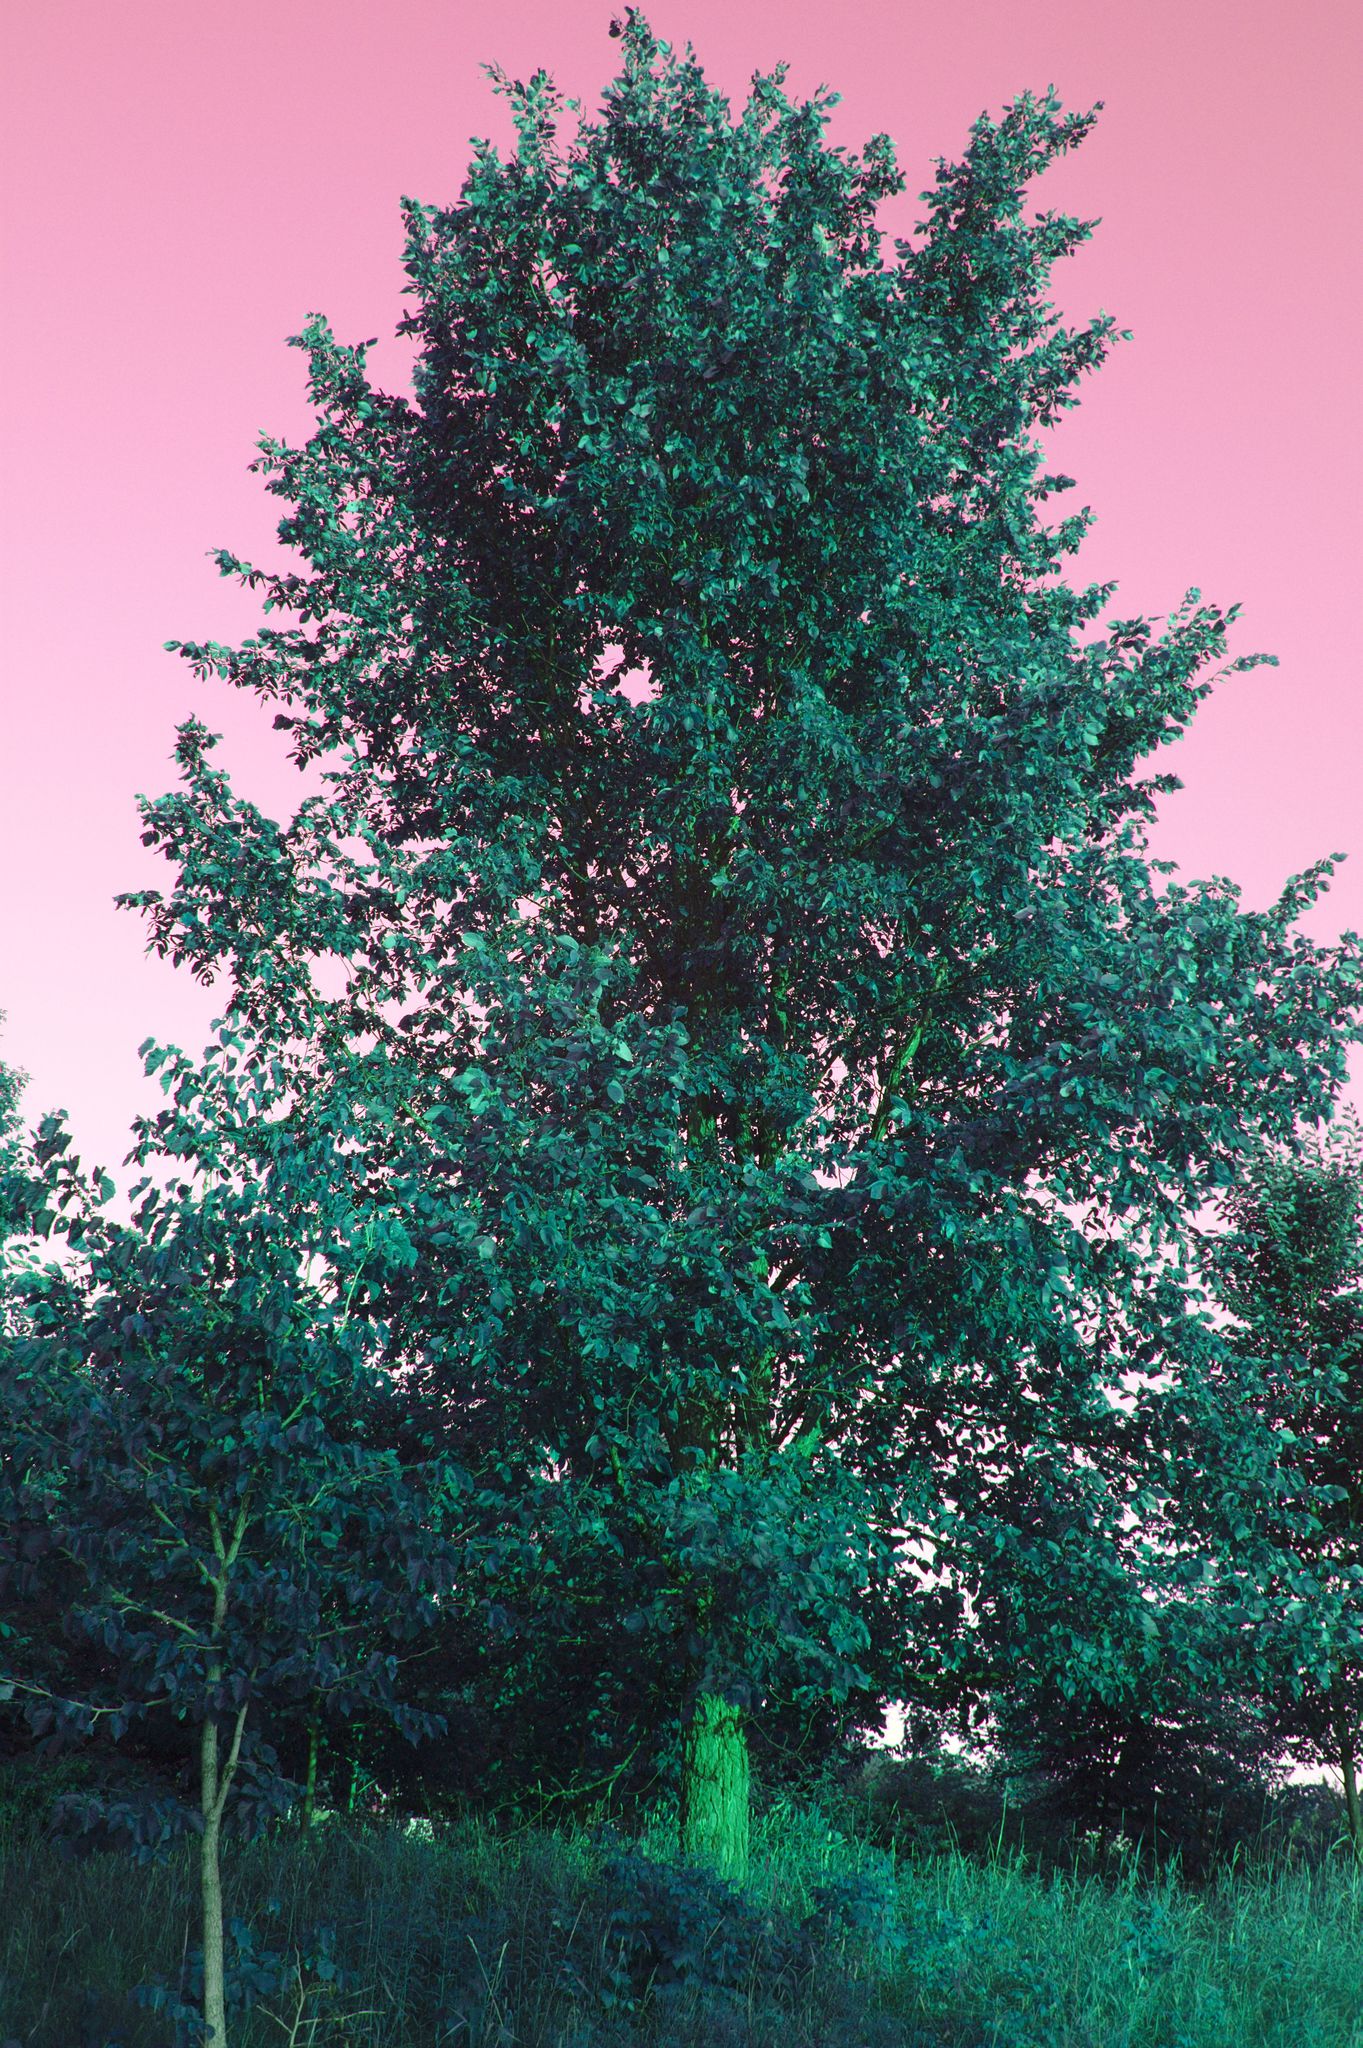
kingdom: Plantae
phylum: Tracheophyta
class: Magnoliopsida
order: Rosales
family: Ulmaceae
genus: Ulmus
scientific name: Ulmus americana
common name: American elm
